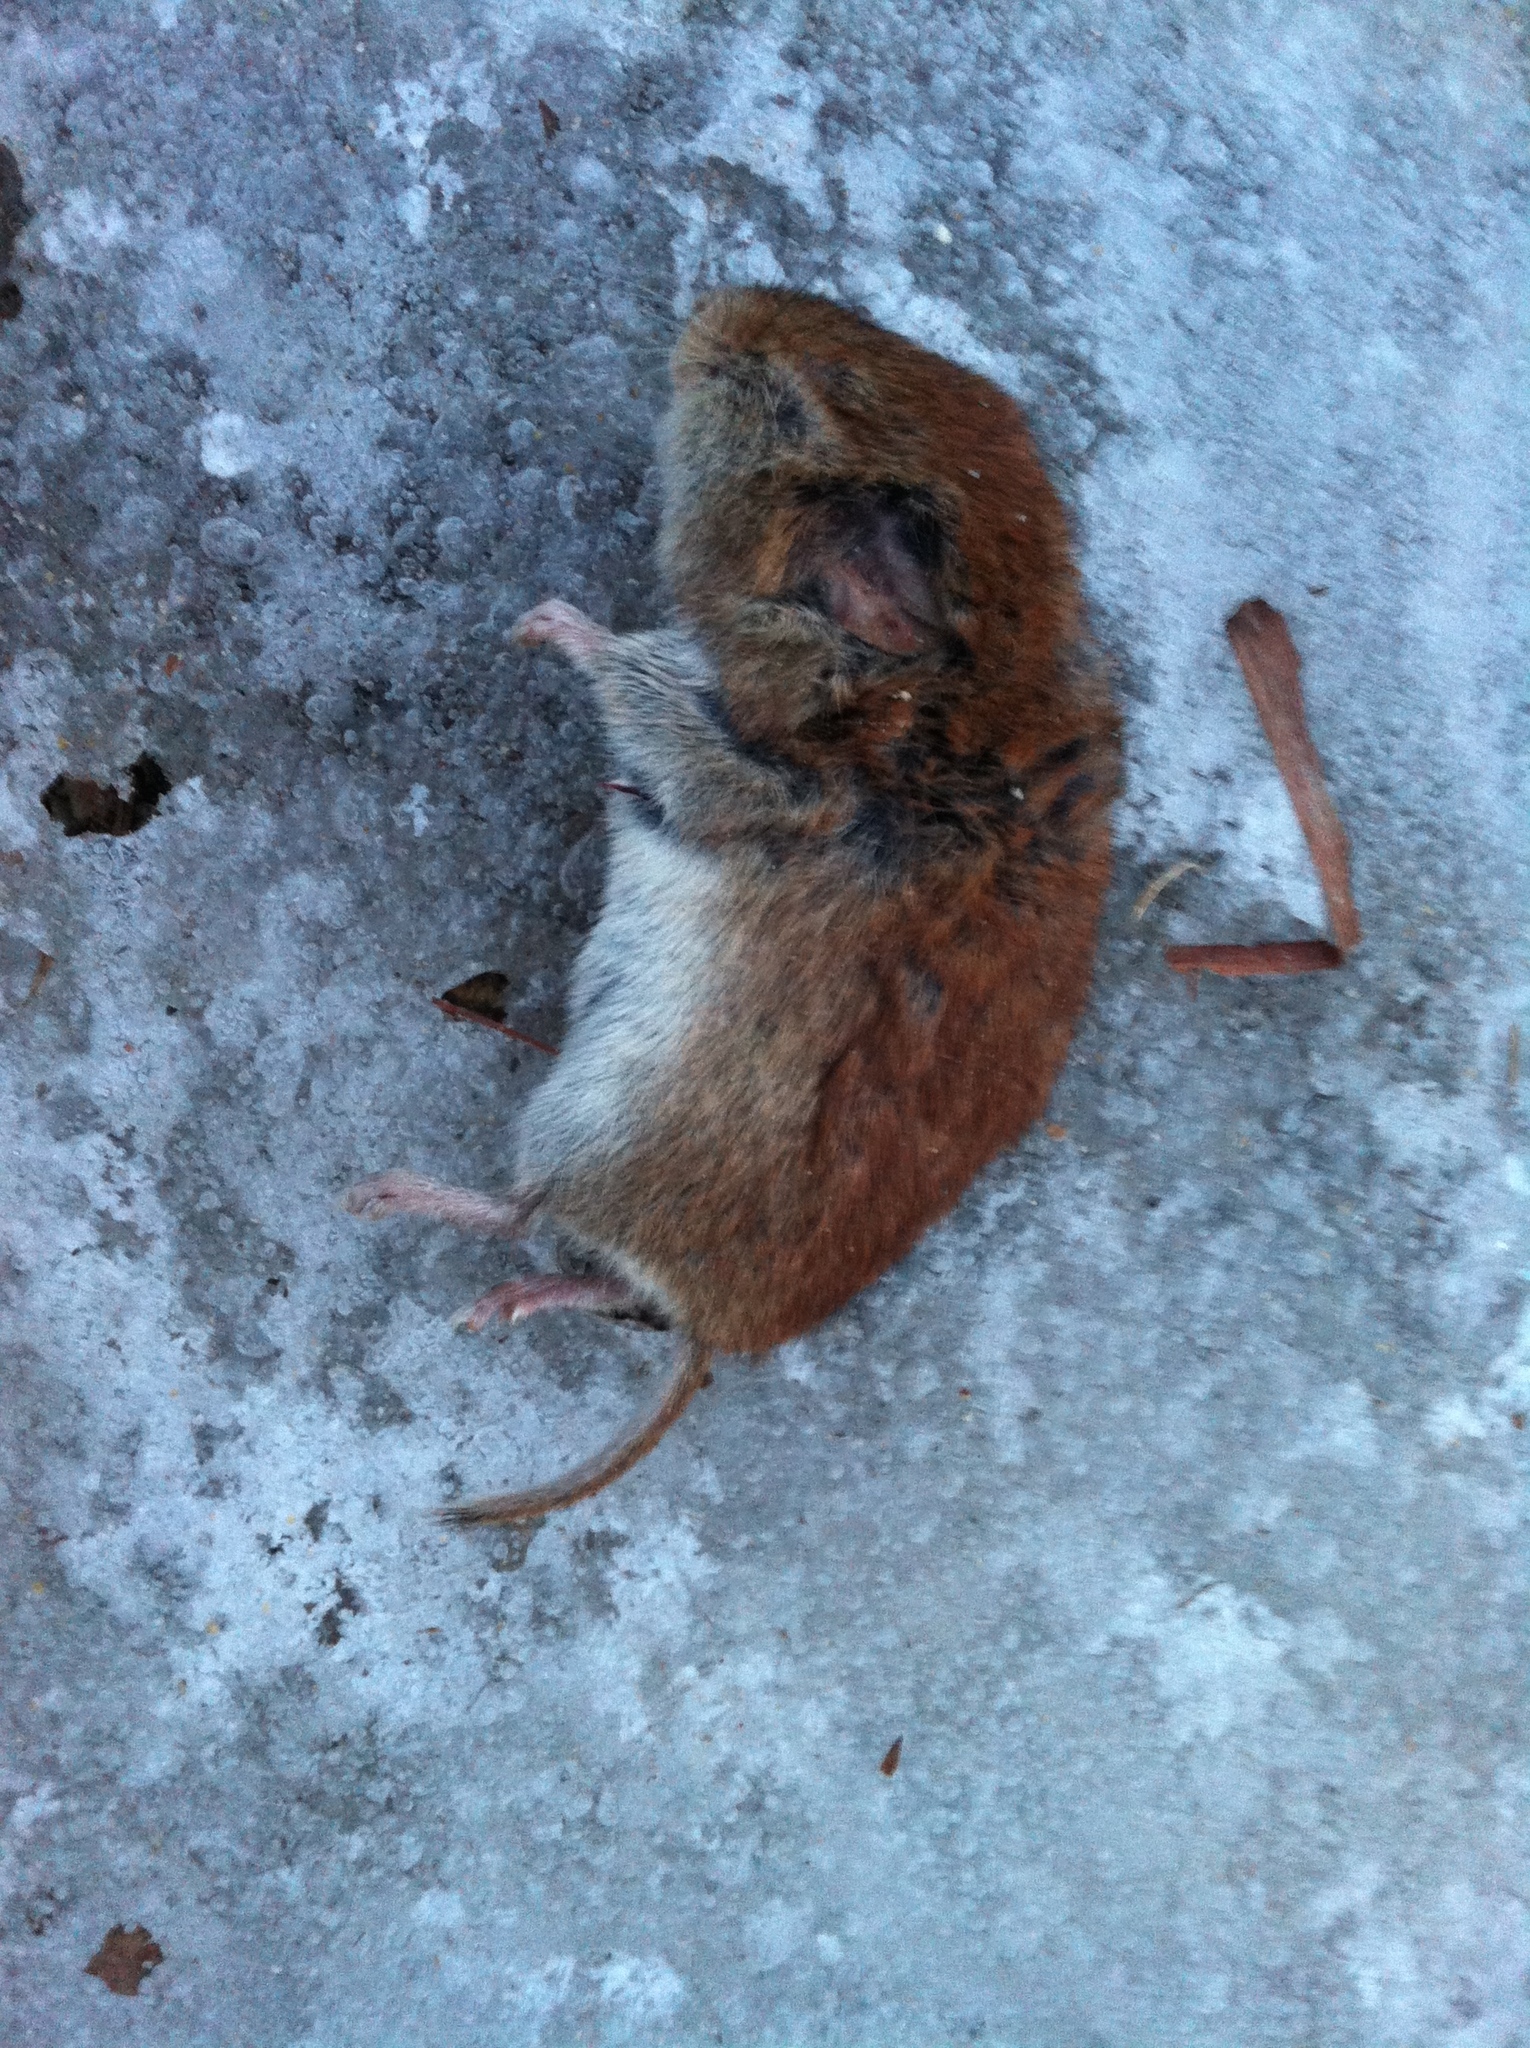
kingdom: Animalia
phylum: Chordata
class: Mammalia
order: Rodentia
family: Cricetidae
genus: Myodes
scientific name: Myodes gapperi
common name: Southern red-backed vole
